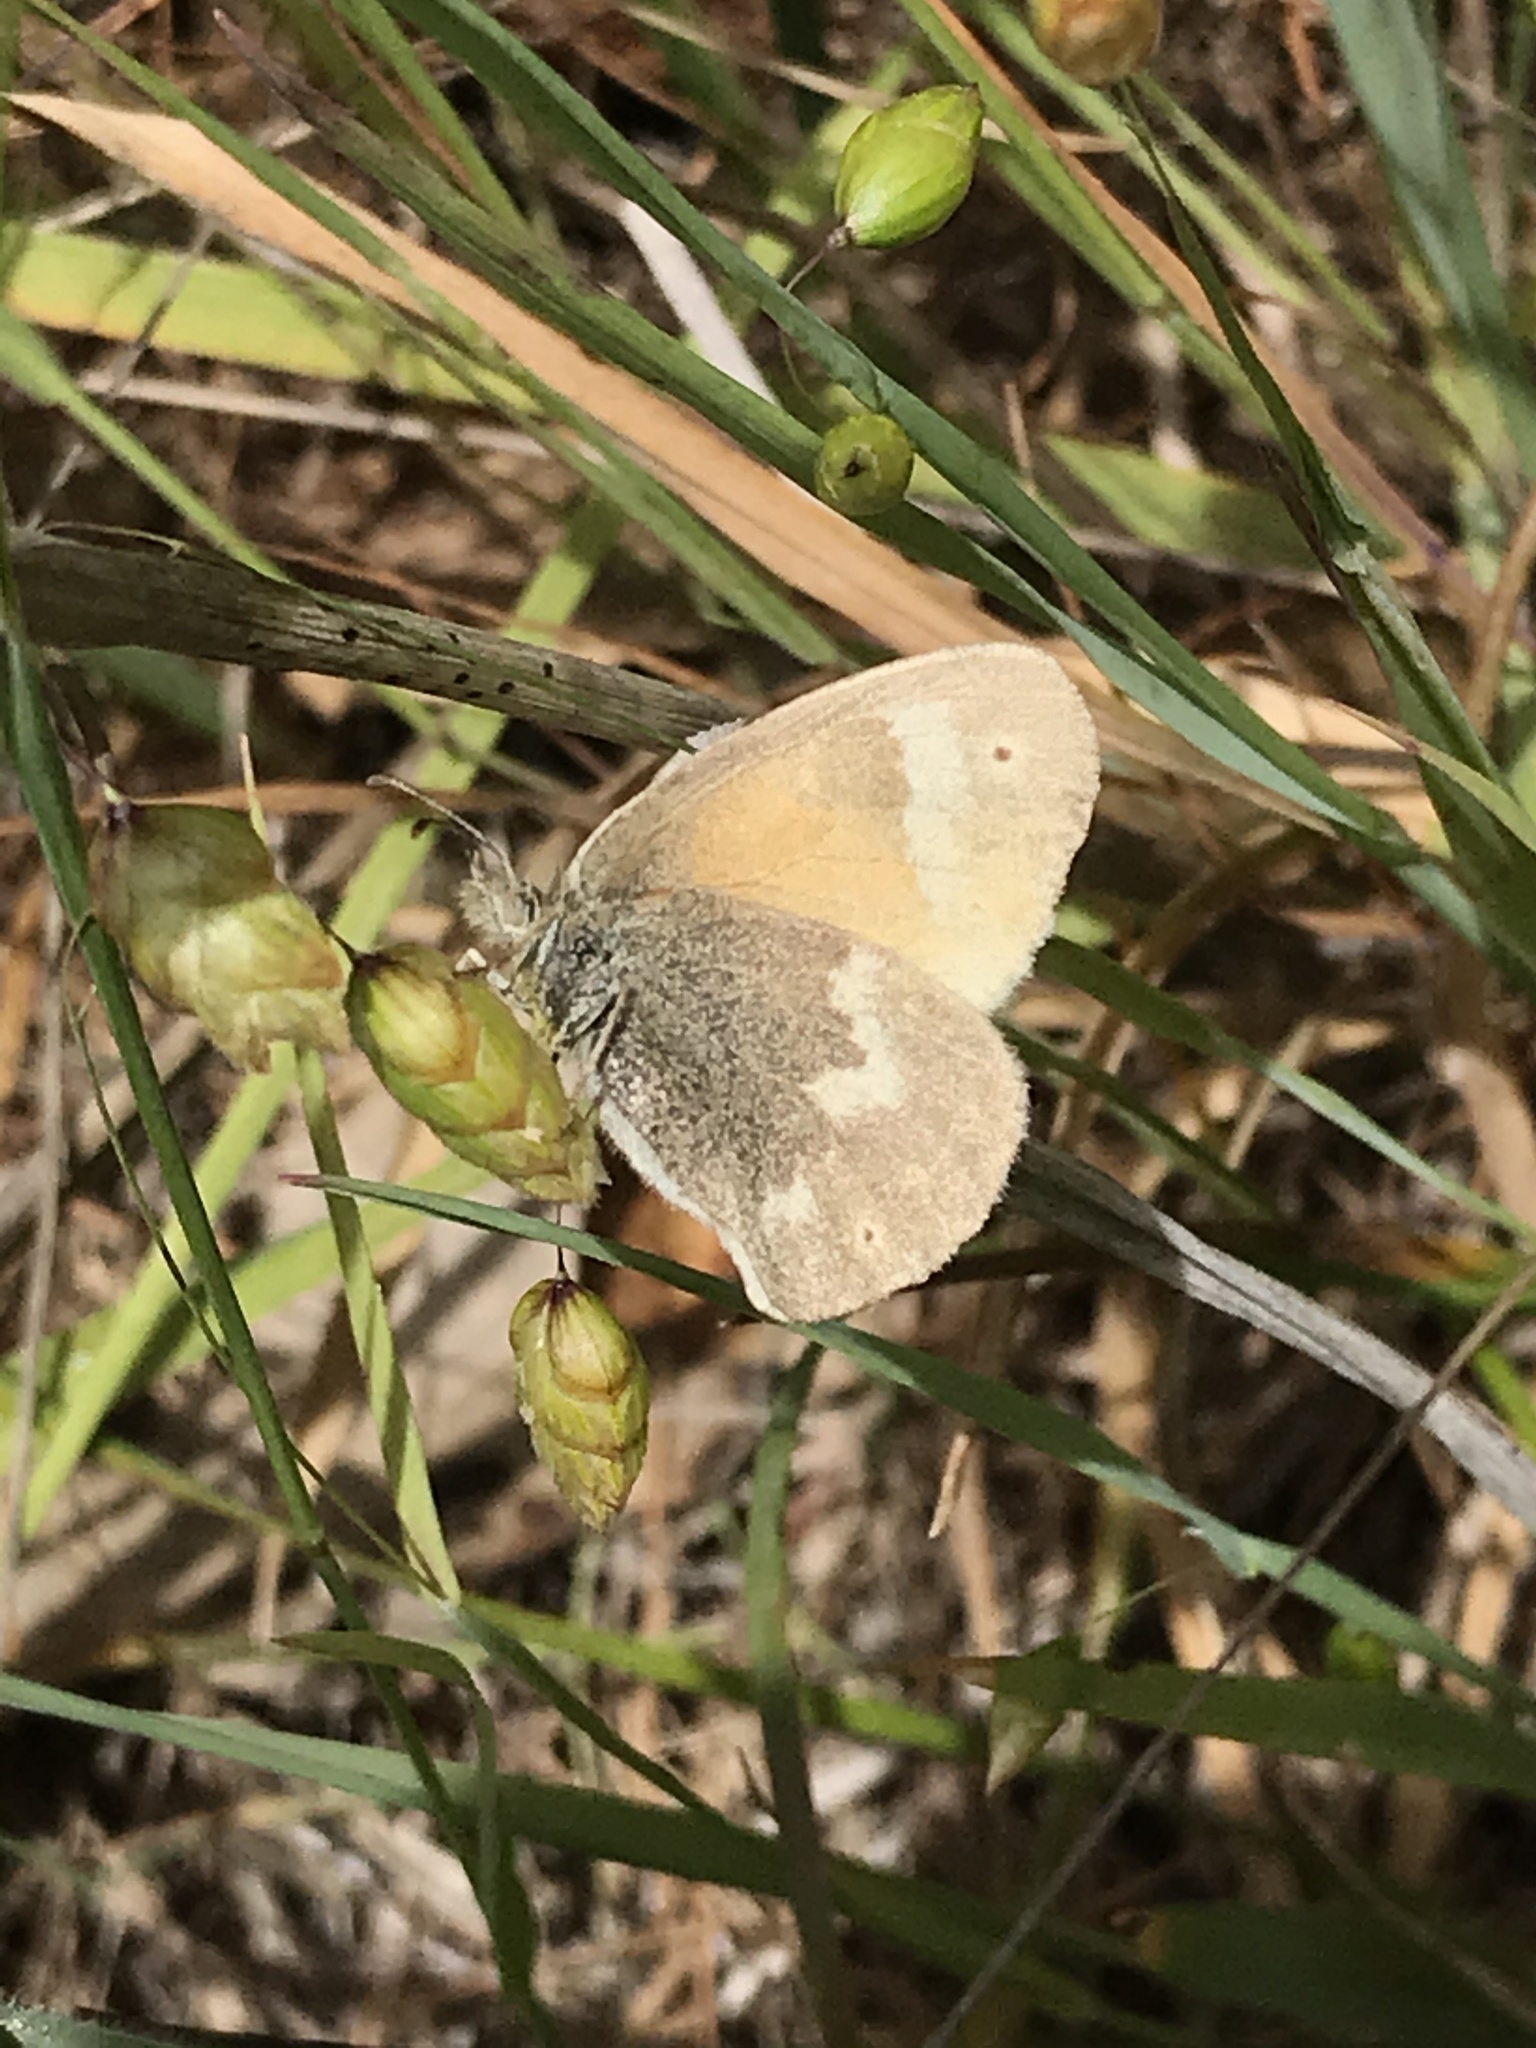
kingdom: Animalia
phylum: Arthropoda
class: Insecta
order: Lepidoptera
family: Nymphalidae
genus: Coenonympha
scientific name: Coenonympha california
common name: Common ringlet
